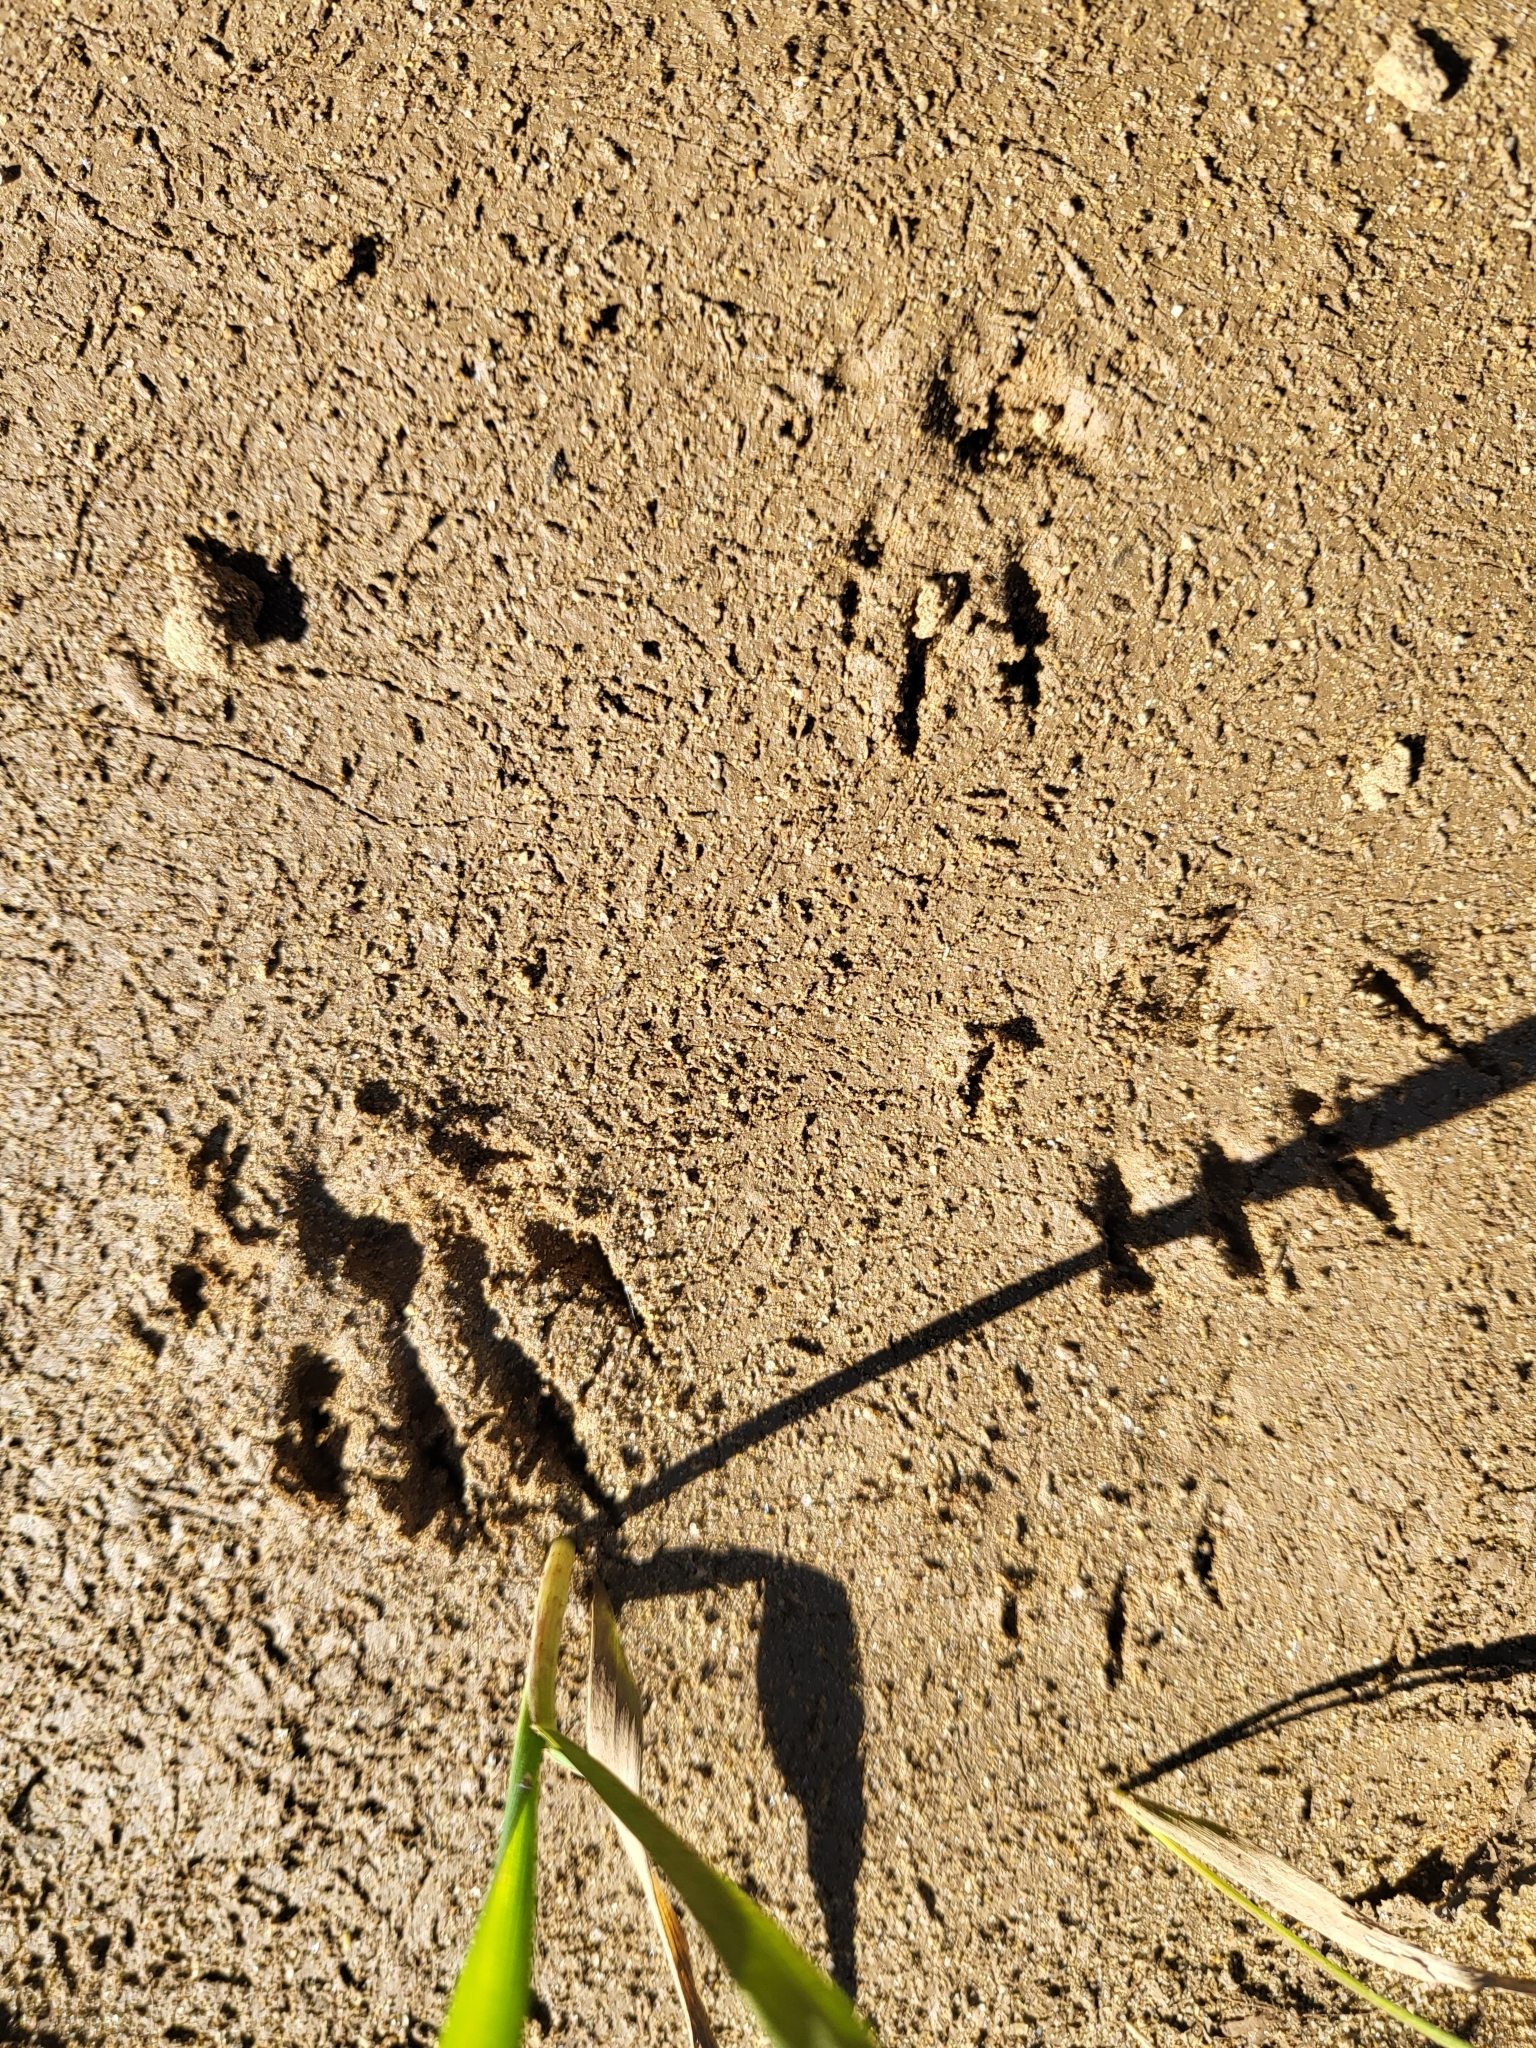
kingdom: Animalia
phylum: Chordata
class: Mammalia
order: Rodentia
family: Sciuridae
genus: Otospermophilus
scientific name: Otospermophilus beecheyi
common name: California ground squirrel
